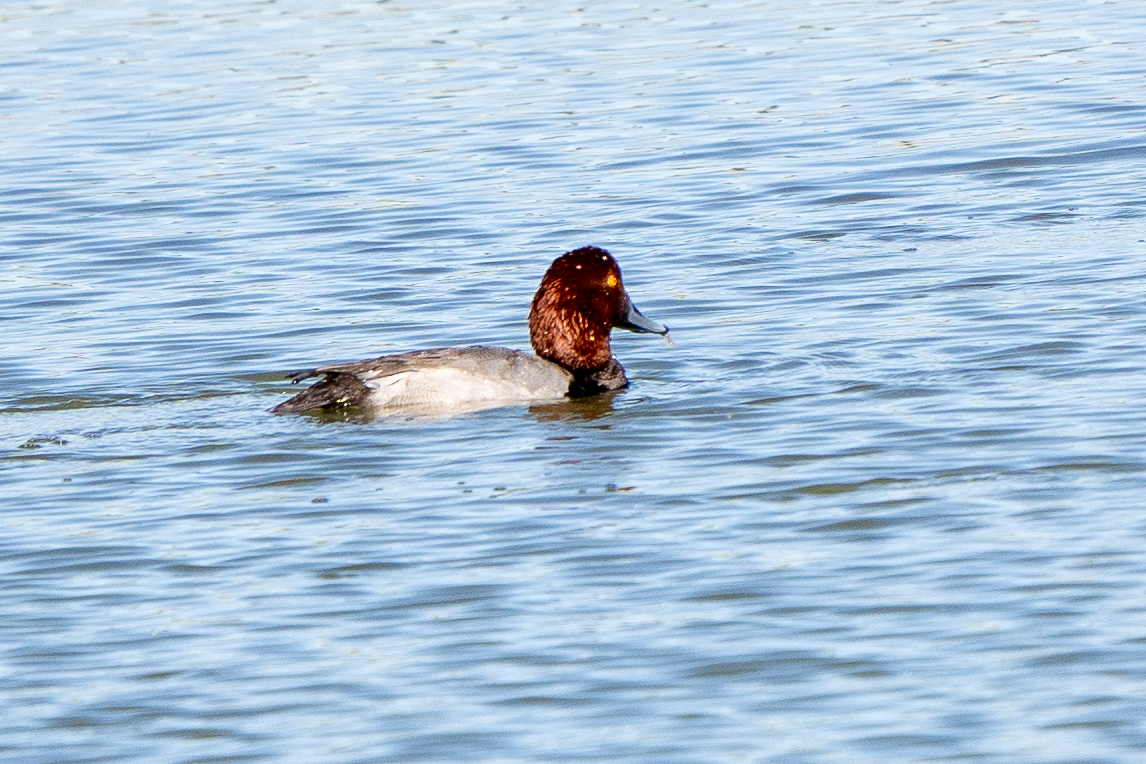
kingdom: Animalia
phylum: Chordata
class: Aves
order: Anseriformes
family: Anatidae
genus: Aythya
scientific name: Aythya americana
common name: Redhead
